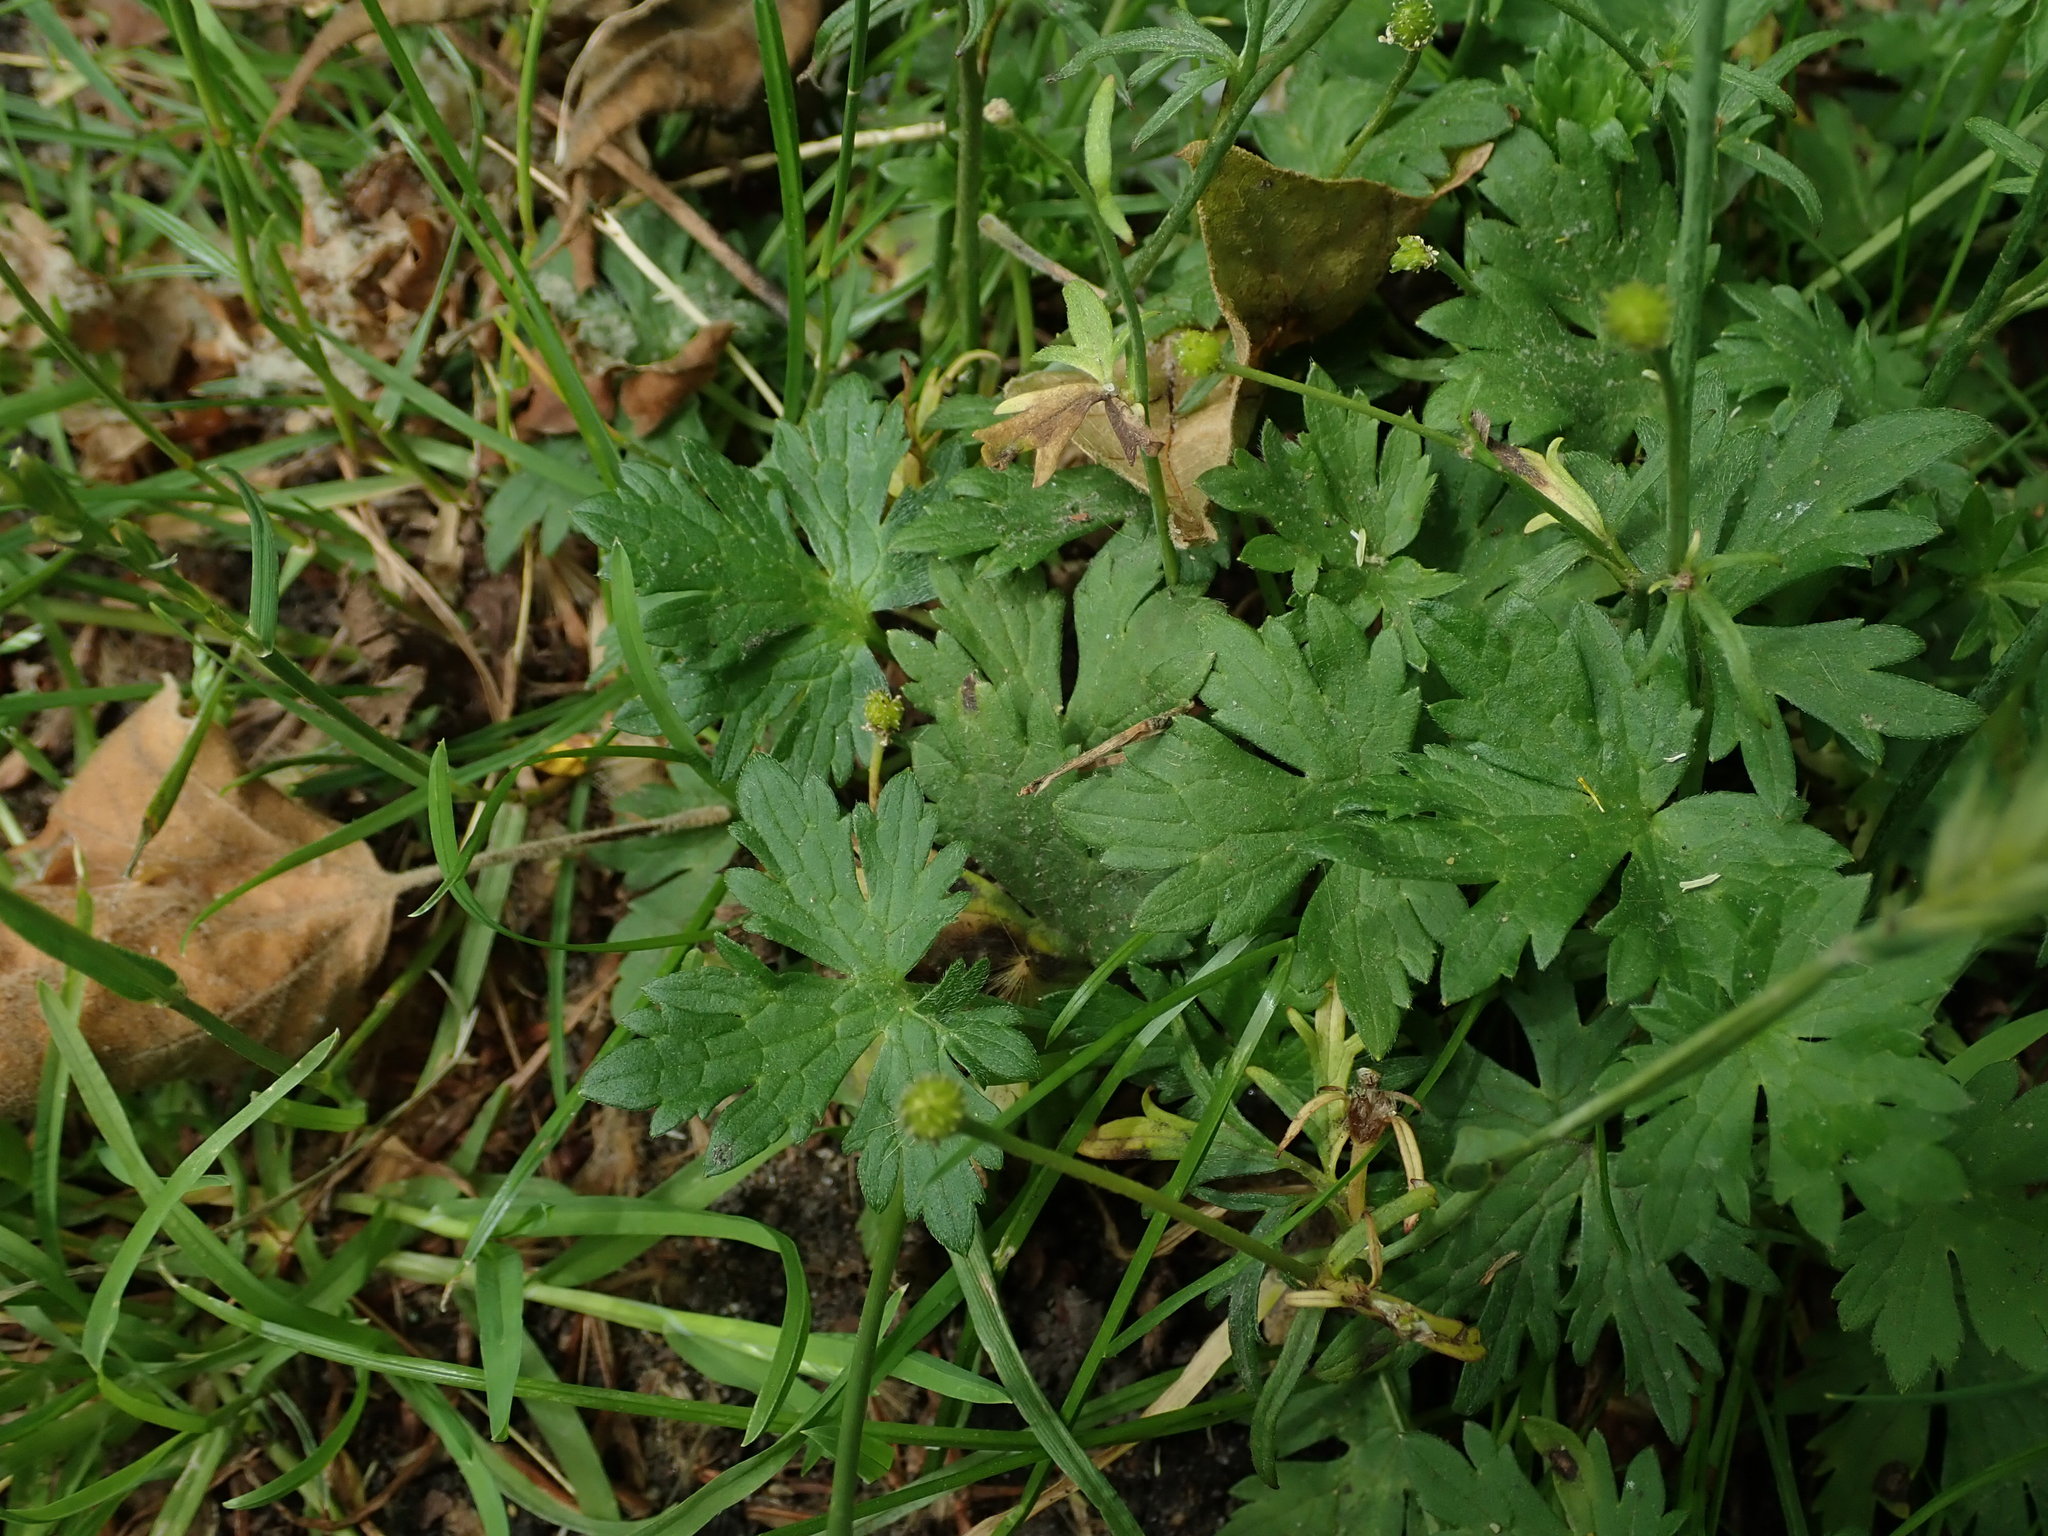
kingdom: Plantae
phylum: Tracheophyta
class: Magnoliopsida
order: Ranunculales
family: Ranunculaceae
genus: Ranunculus
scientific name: Ranunculus acris
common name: Meadow buttercup
